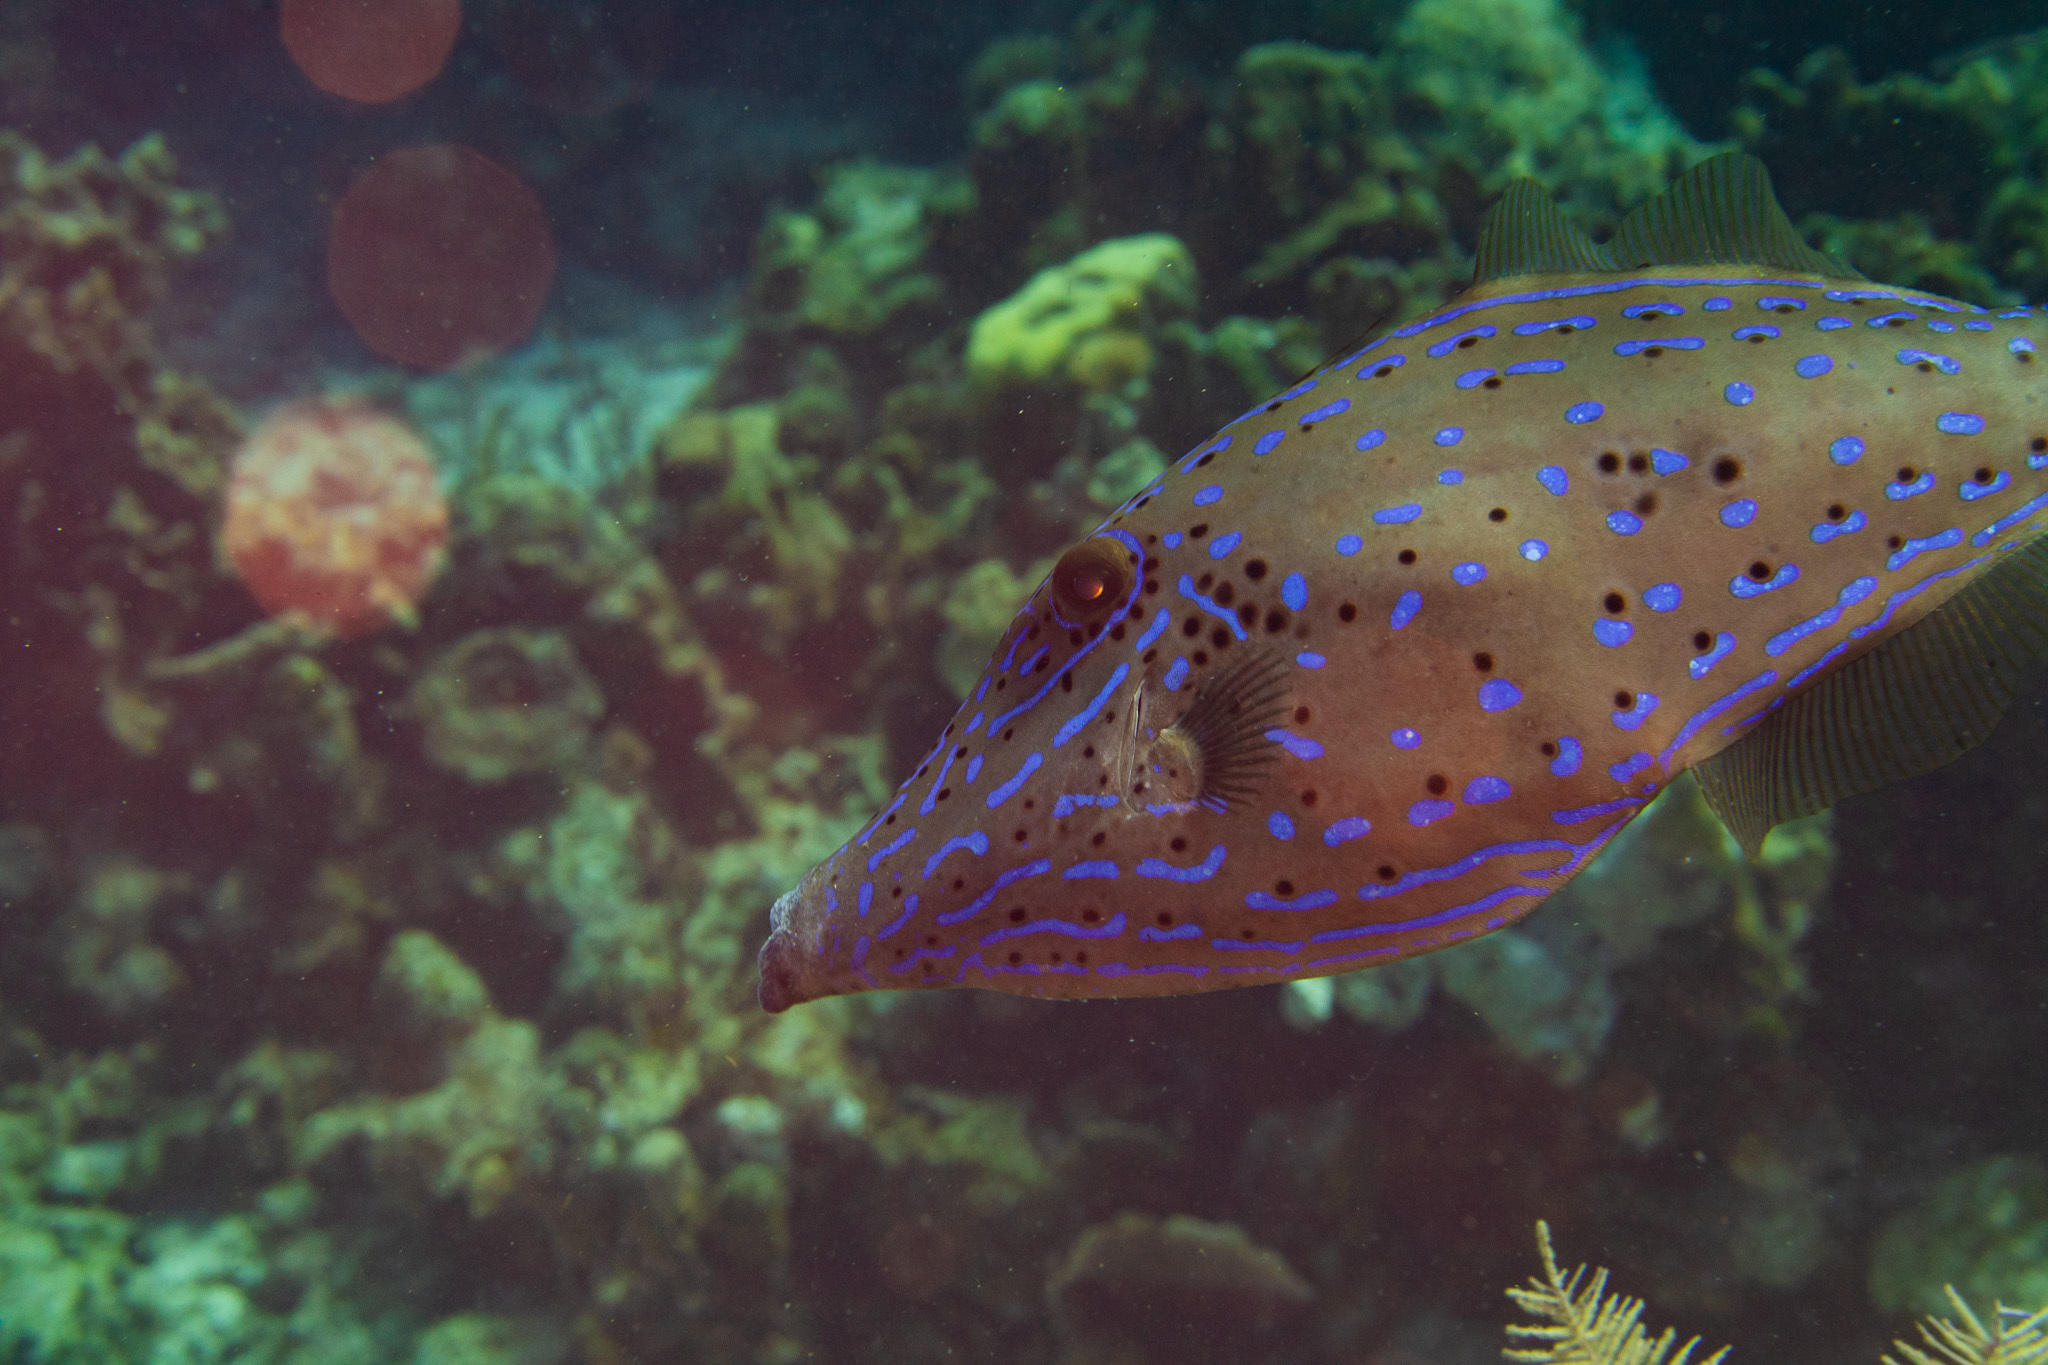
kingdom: Animalia
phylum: Chordata
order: Tetraodontiformes
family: Monacanthidae
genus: Aluterus
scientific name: Aluterus scriptus
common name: Scribbled leatherjacket filefish
